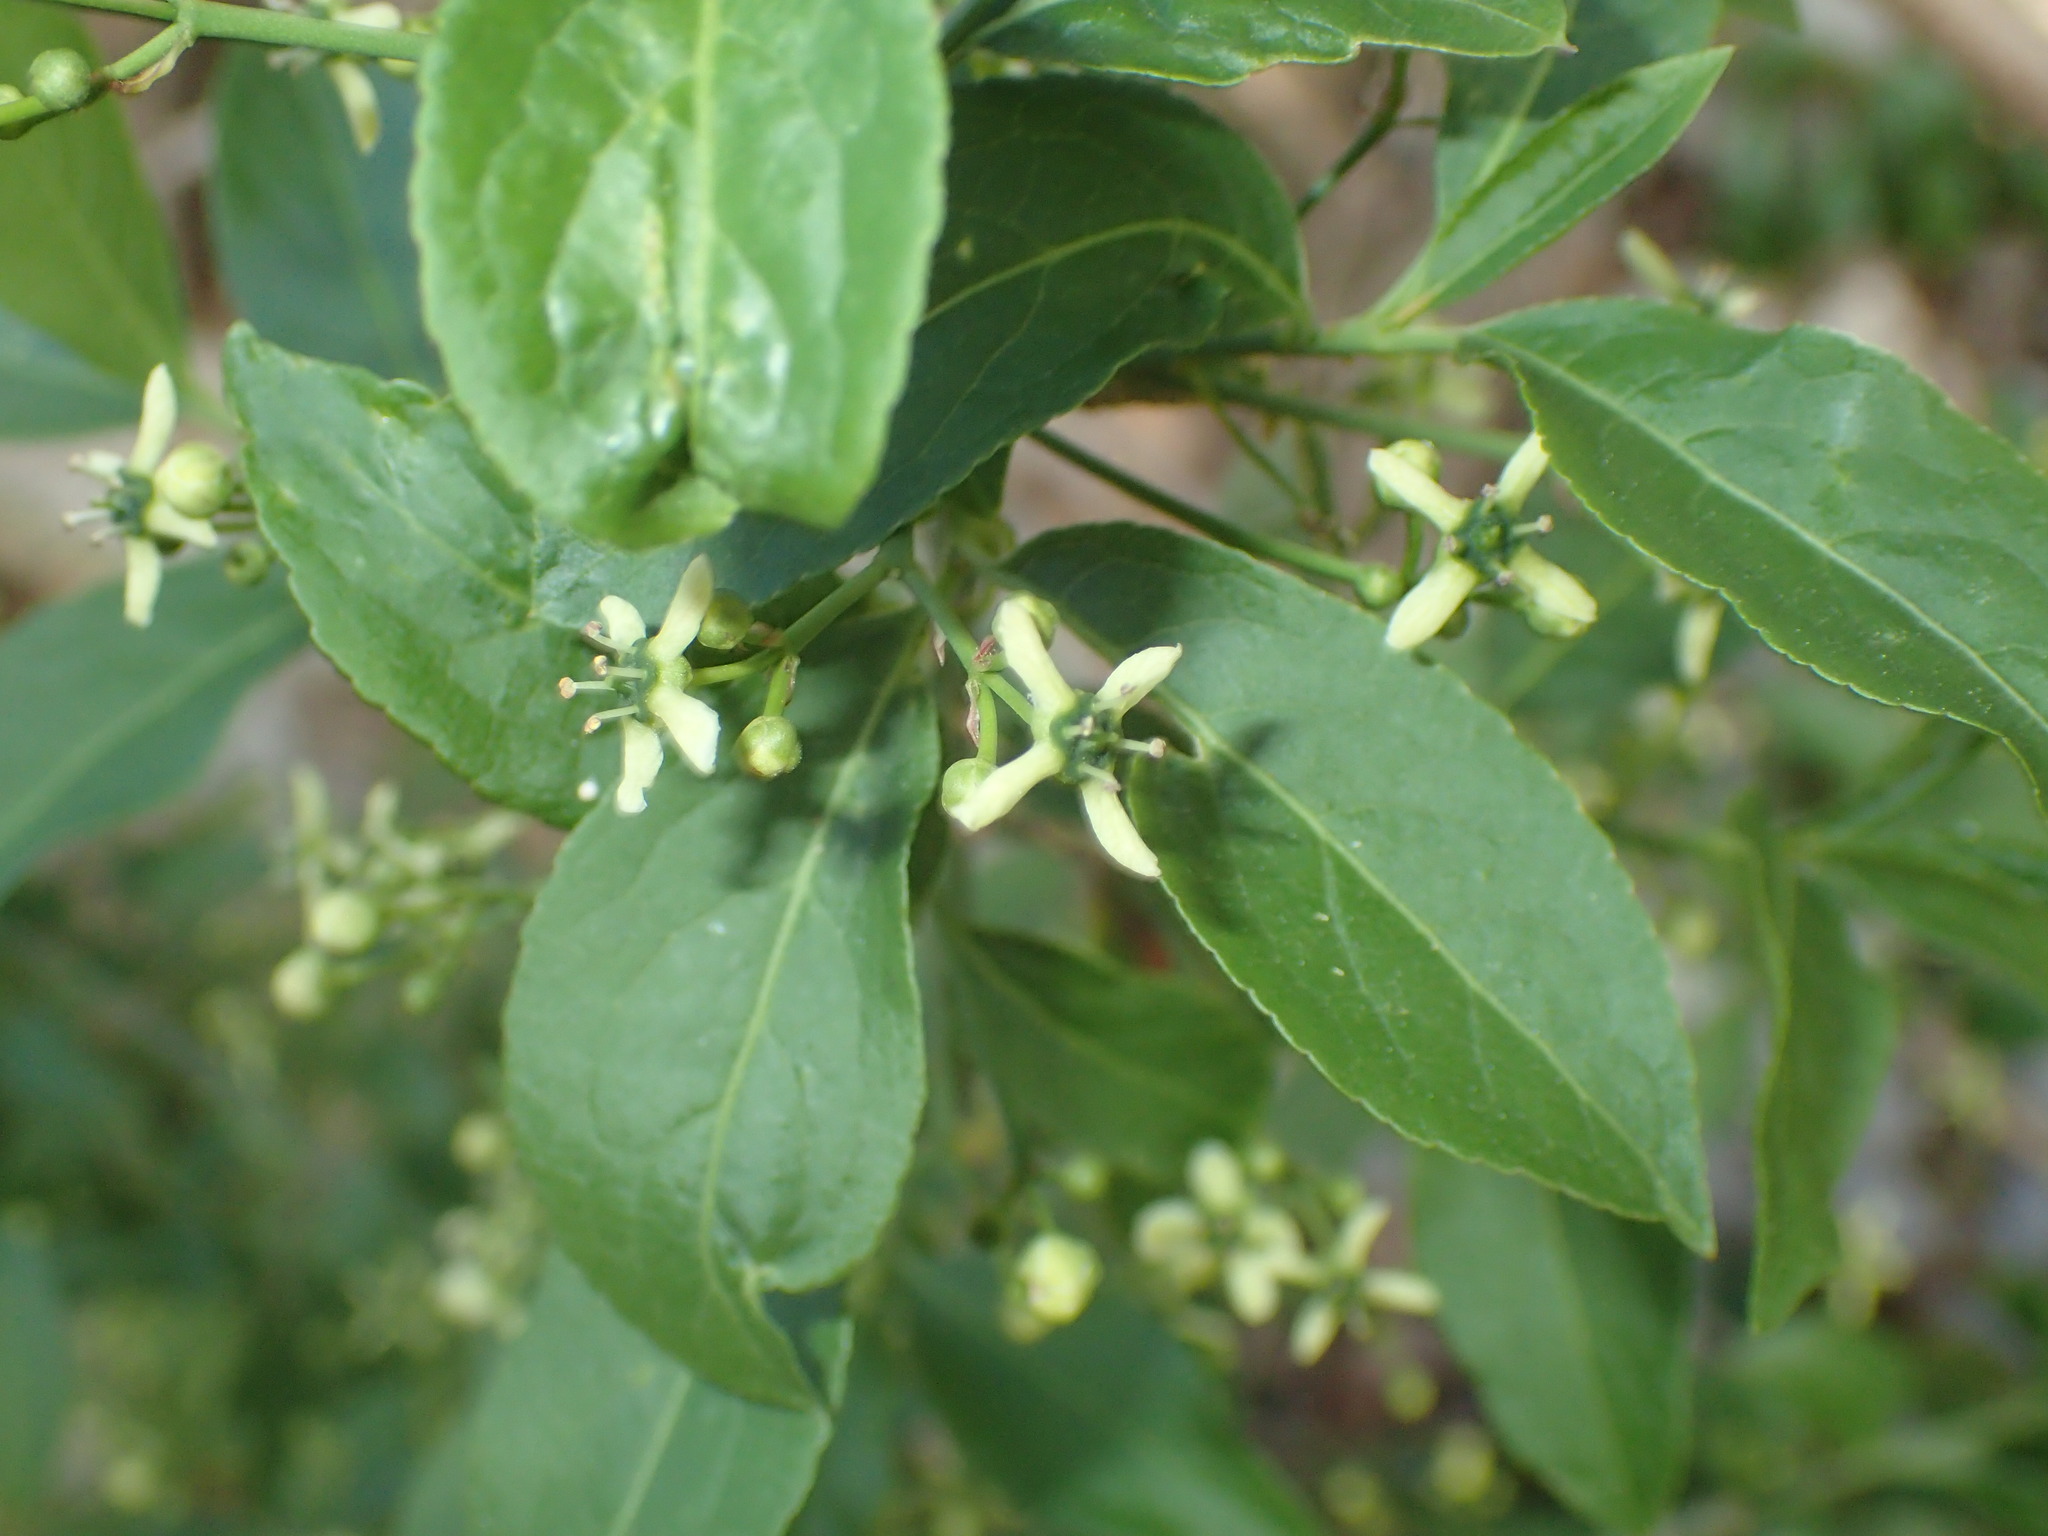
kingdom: Plantae
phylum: Tracheophyta
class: Magnoliopsida
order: Celastrales
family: Celastraceae
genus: Euonymus
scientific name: Euonymus europaeus
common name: Spindle
